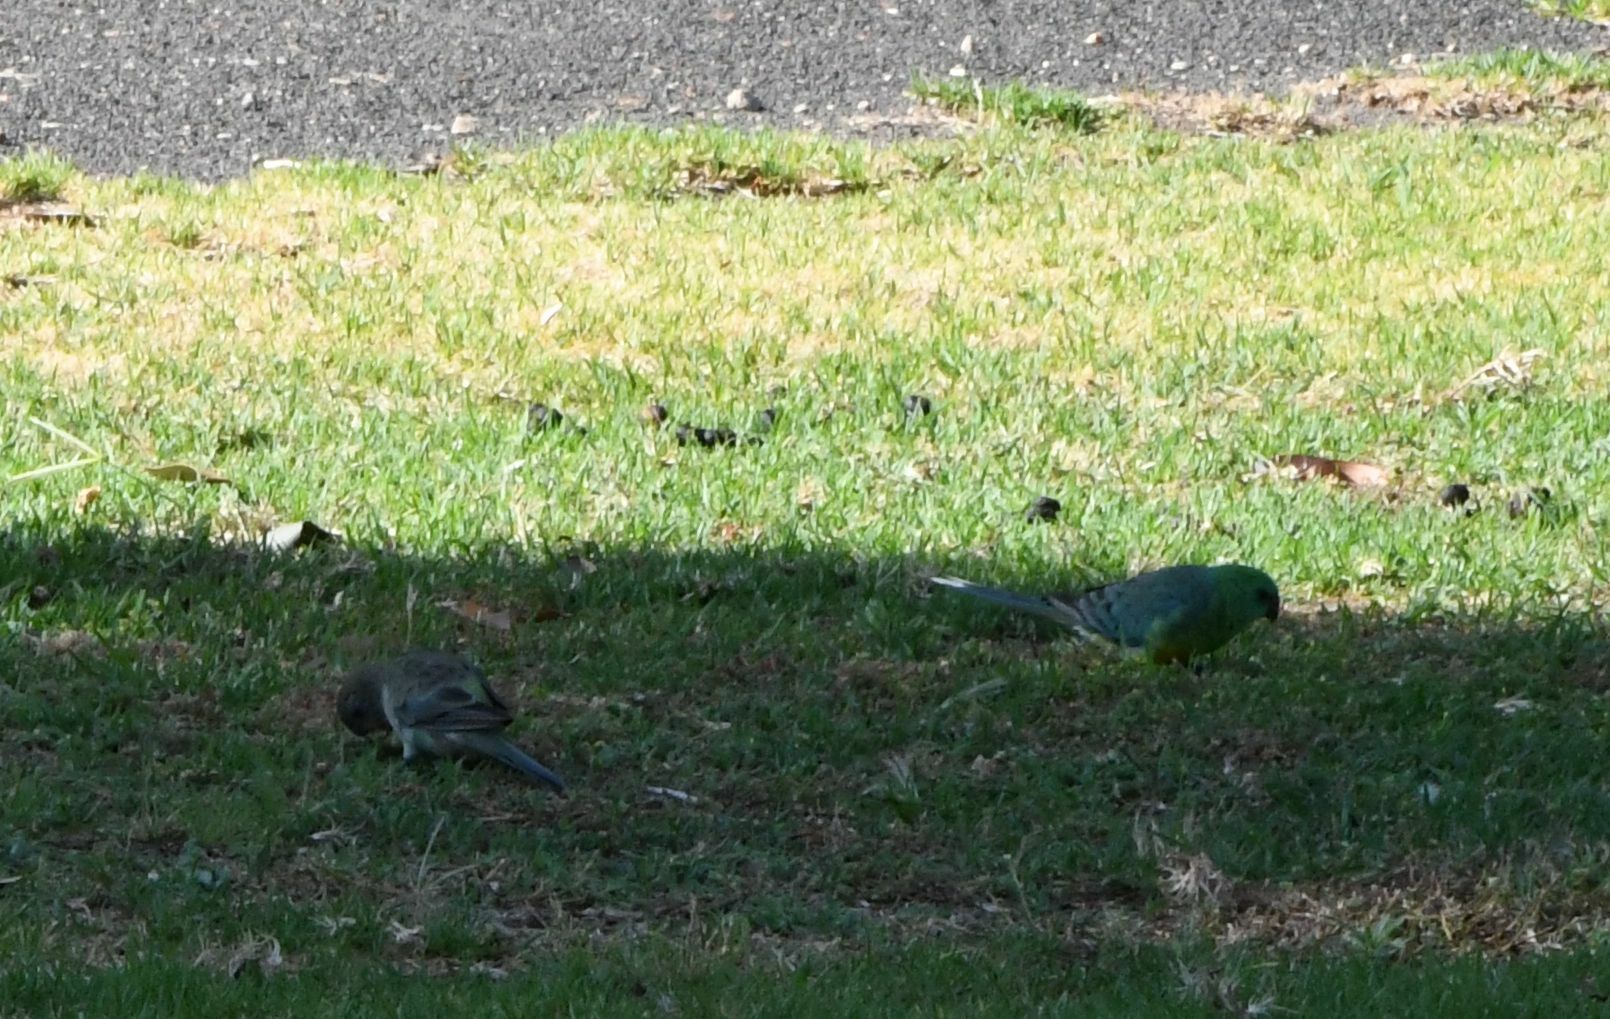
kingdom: Animalia
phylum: Chordata
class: Aves
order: Psittaciformes
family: Psittacidae
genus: Psephotus
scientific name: Psephotus haematonotus
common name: Red-rumped parrot
